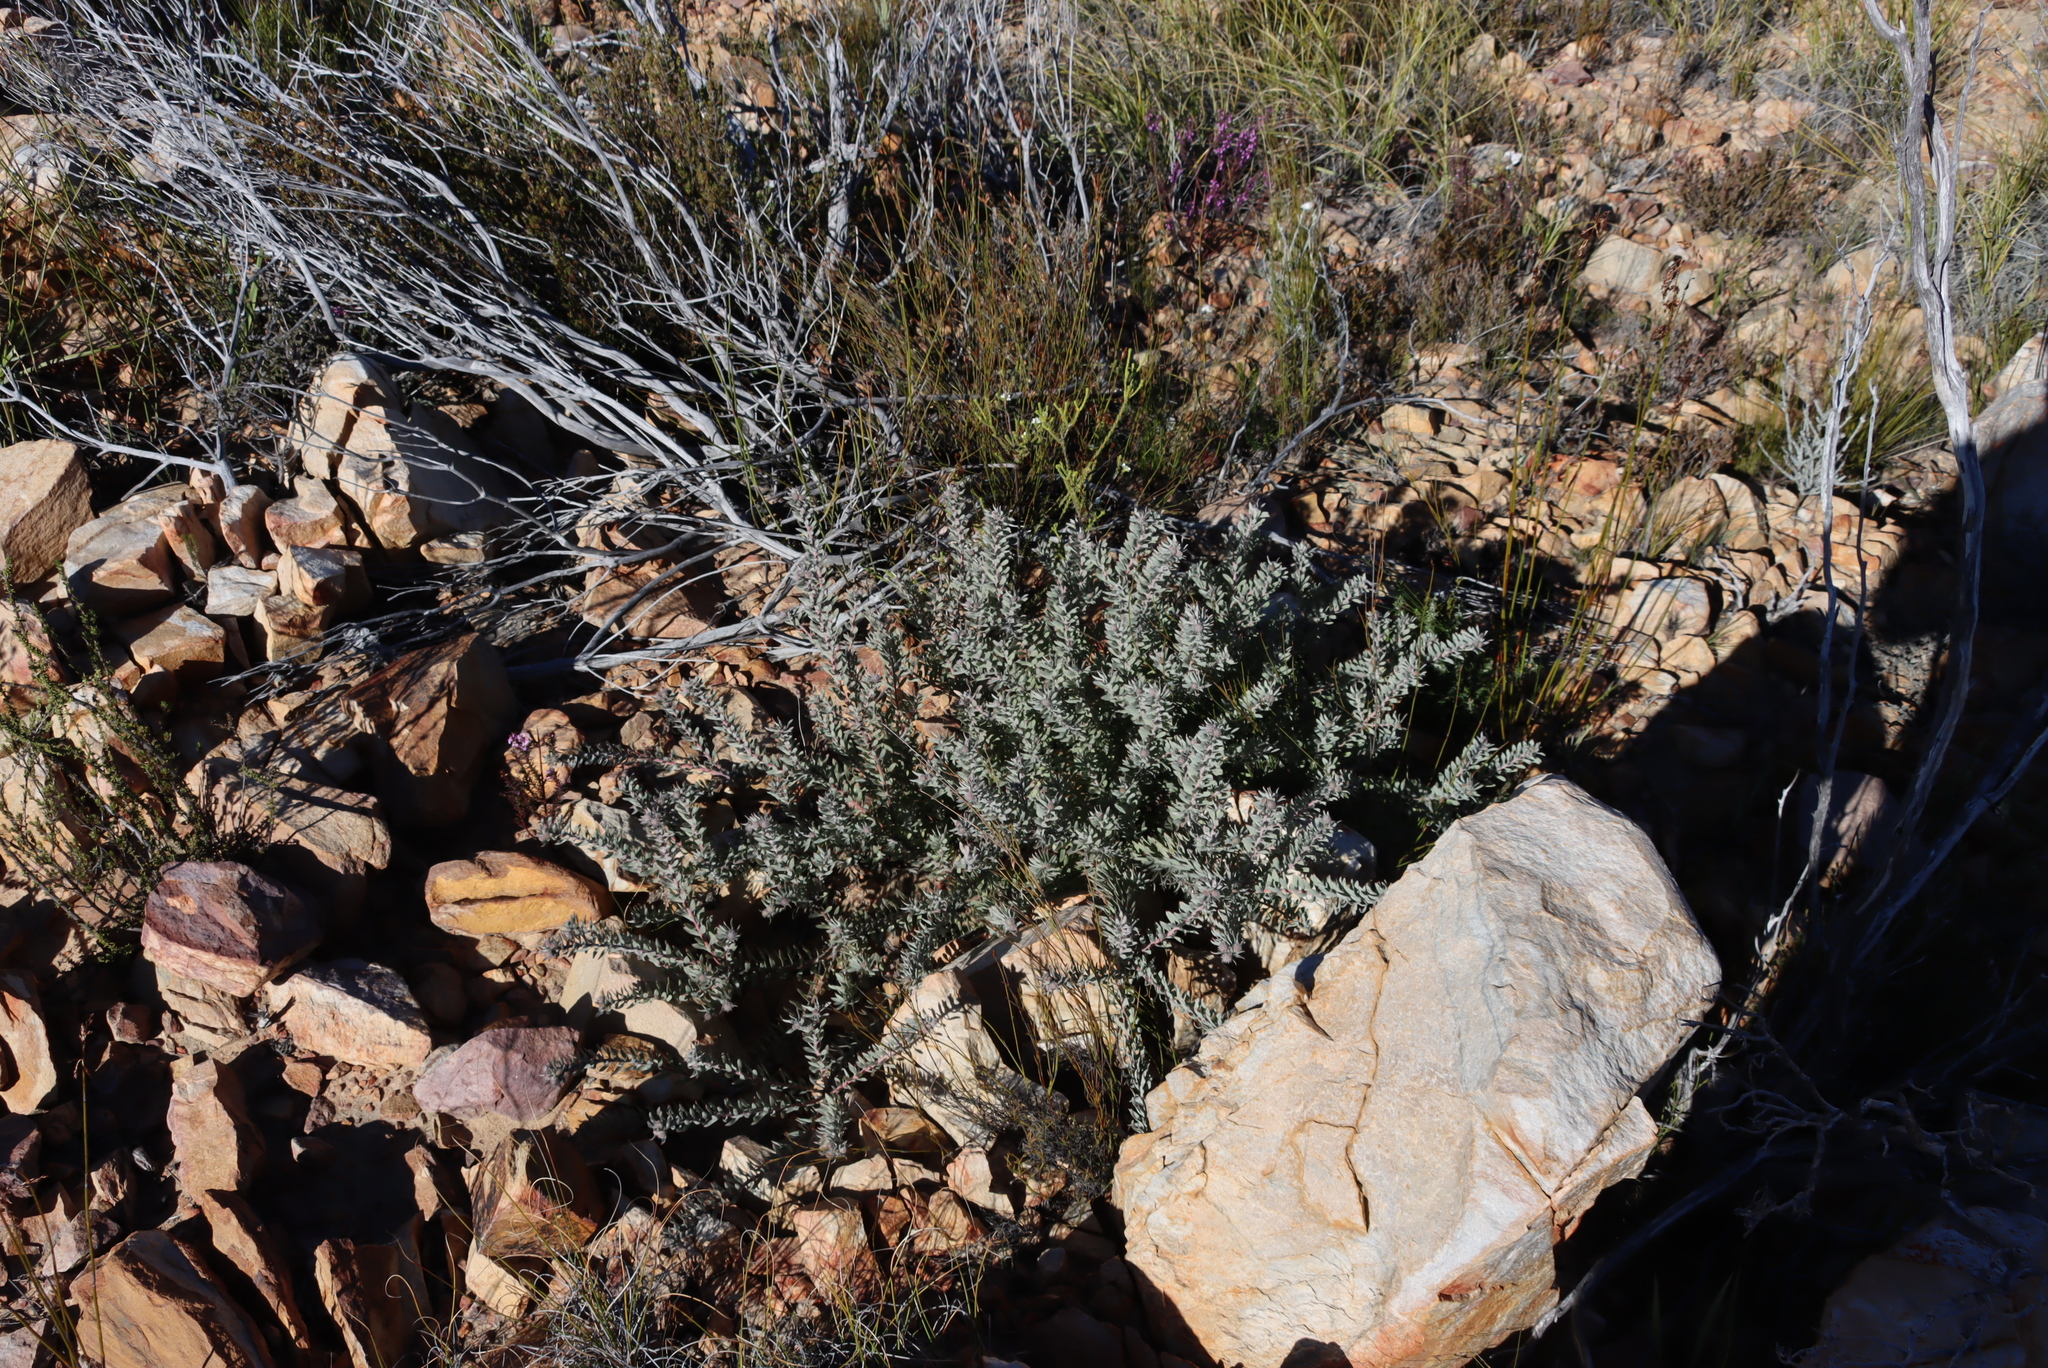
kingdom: Plantae
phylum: Tracheophyta
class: Magnoliopsida
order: Proteales
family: Proteaceae
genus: Leucospermum
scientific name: Leucospermum wittebergense
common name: Swartberg pincushion
